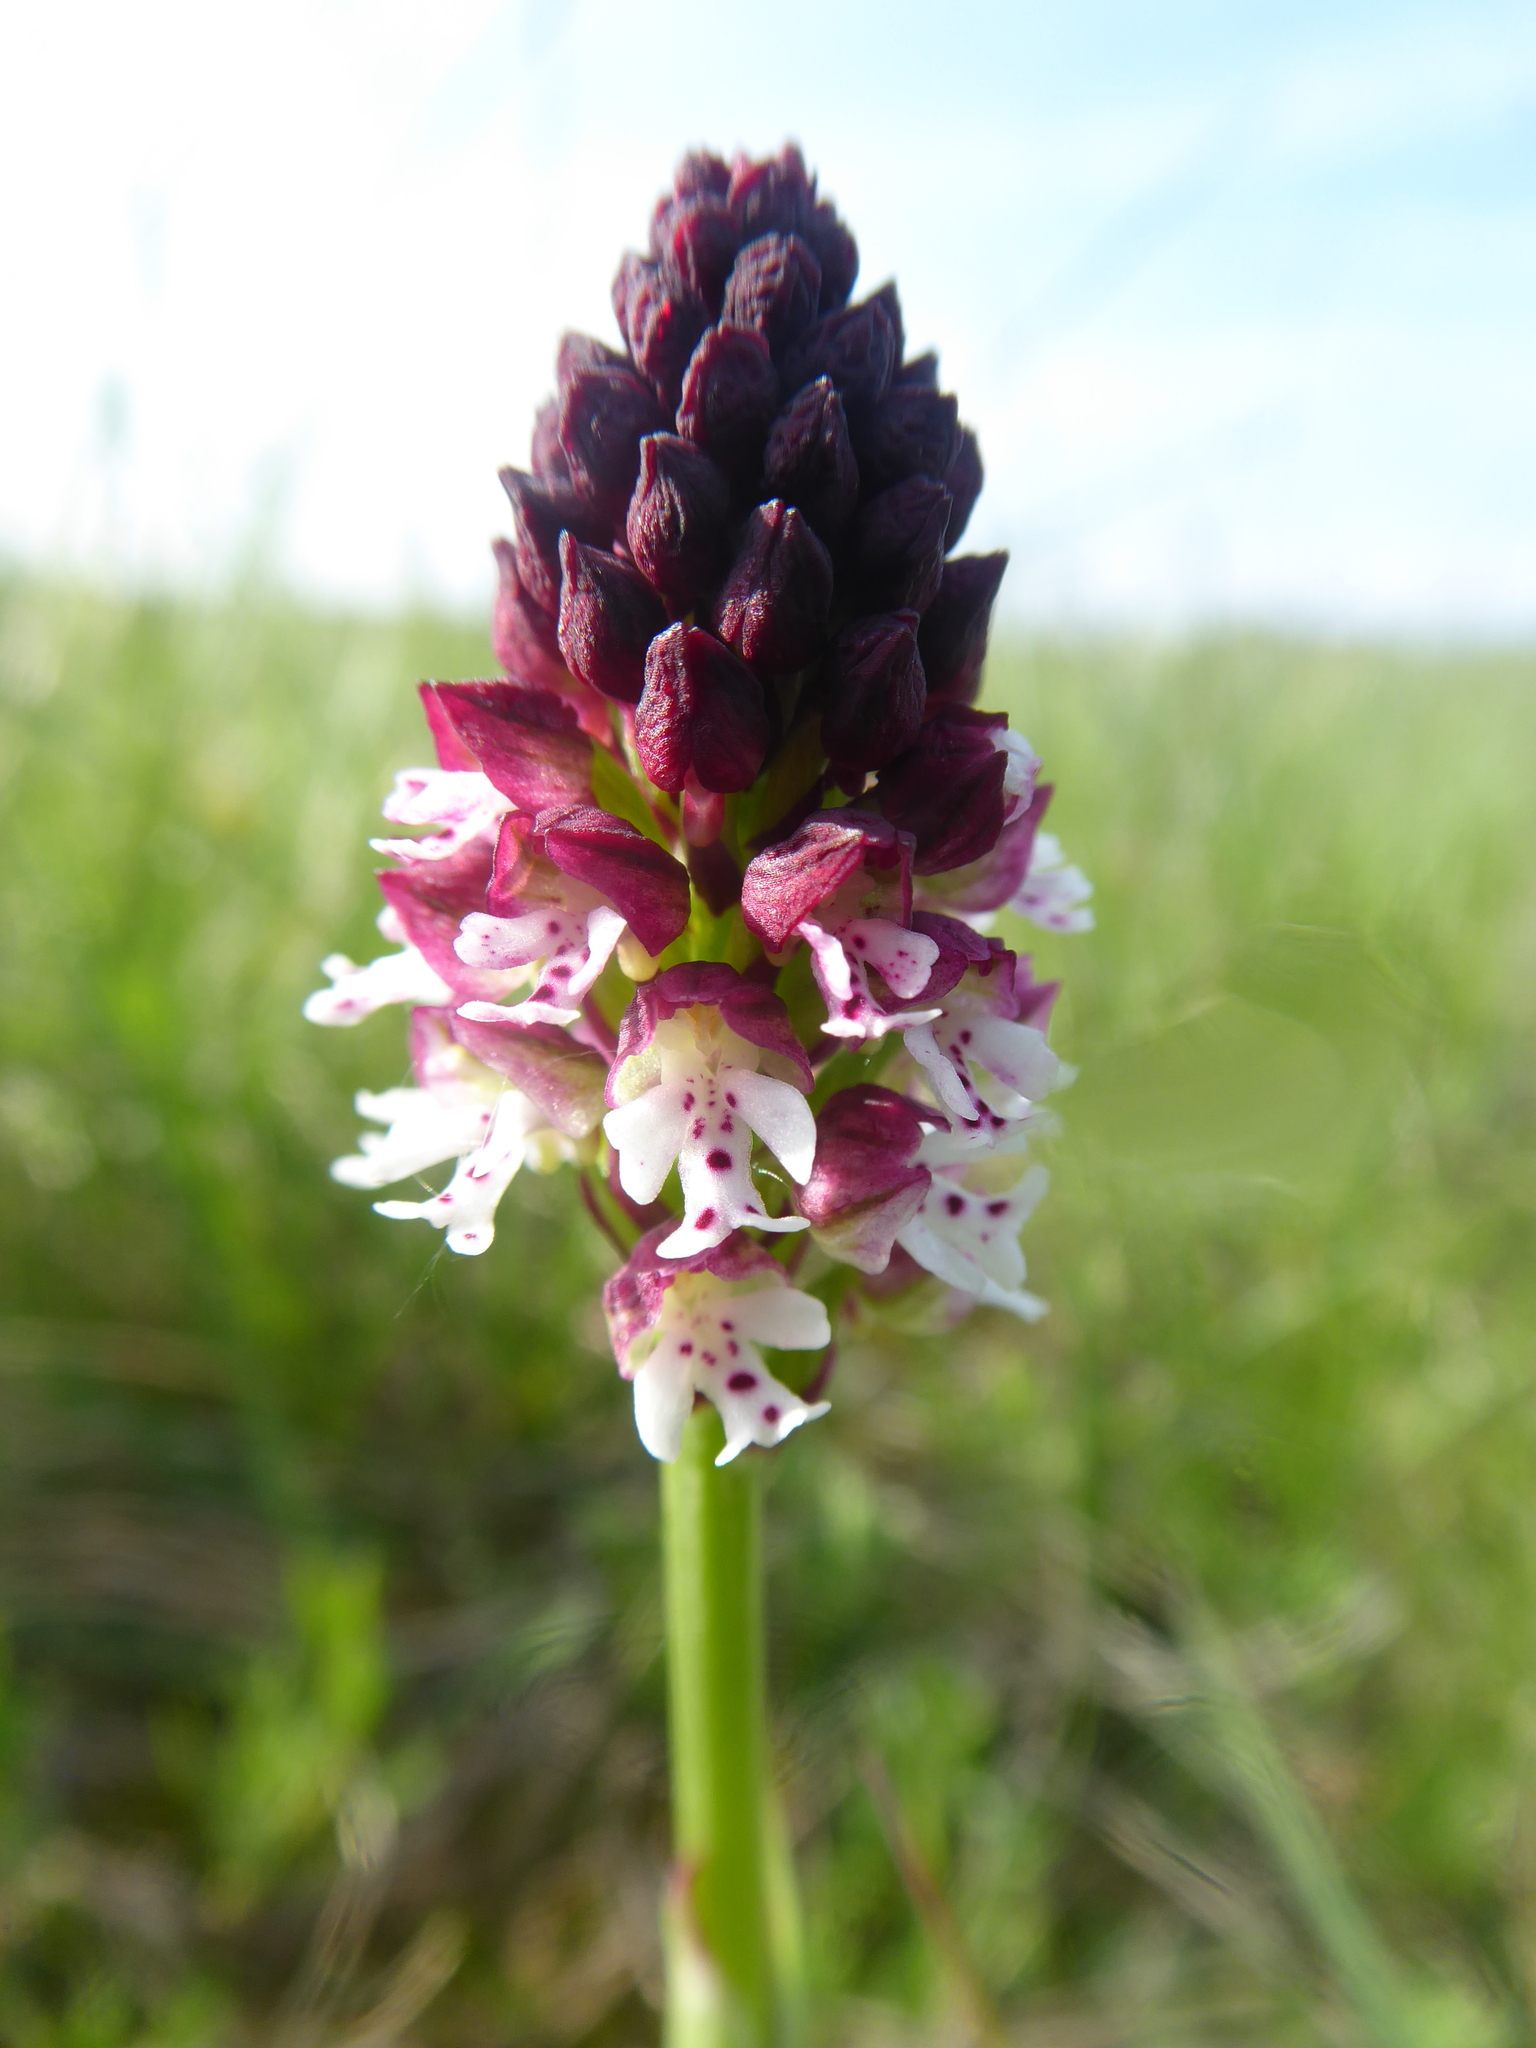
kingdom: Plantae
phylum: Tracheophyta
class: Liliopsida
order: Asparagales
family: Orchidaceae
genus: Neotinea
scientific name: Neotinea ustulata
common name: Burnt orchid
